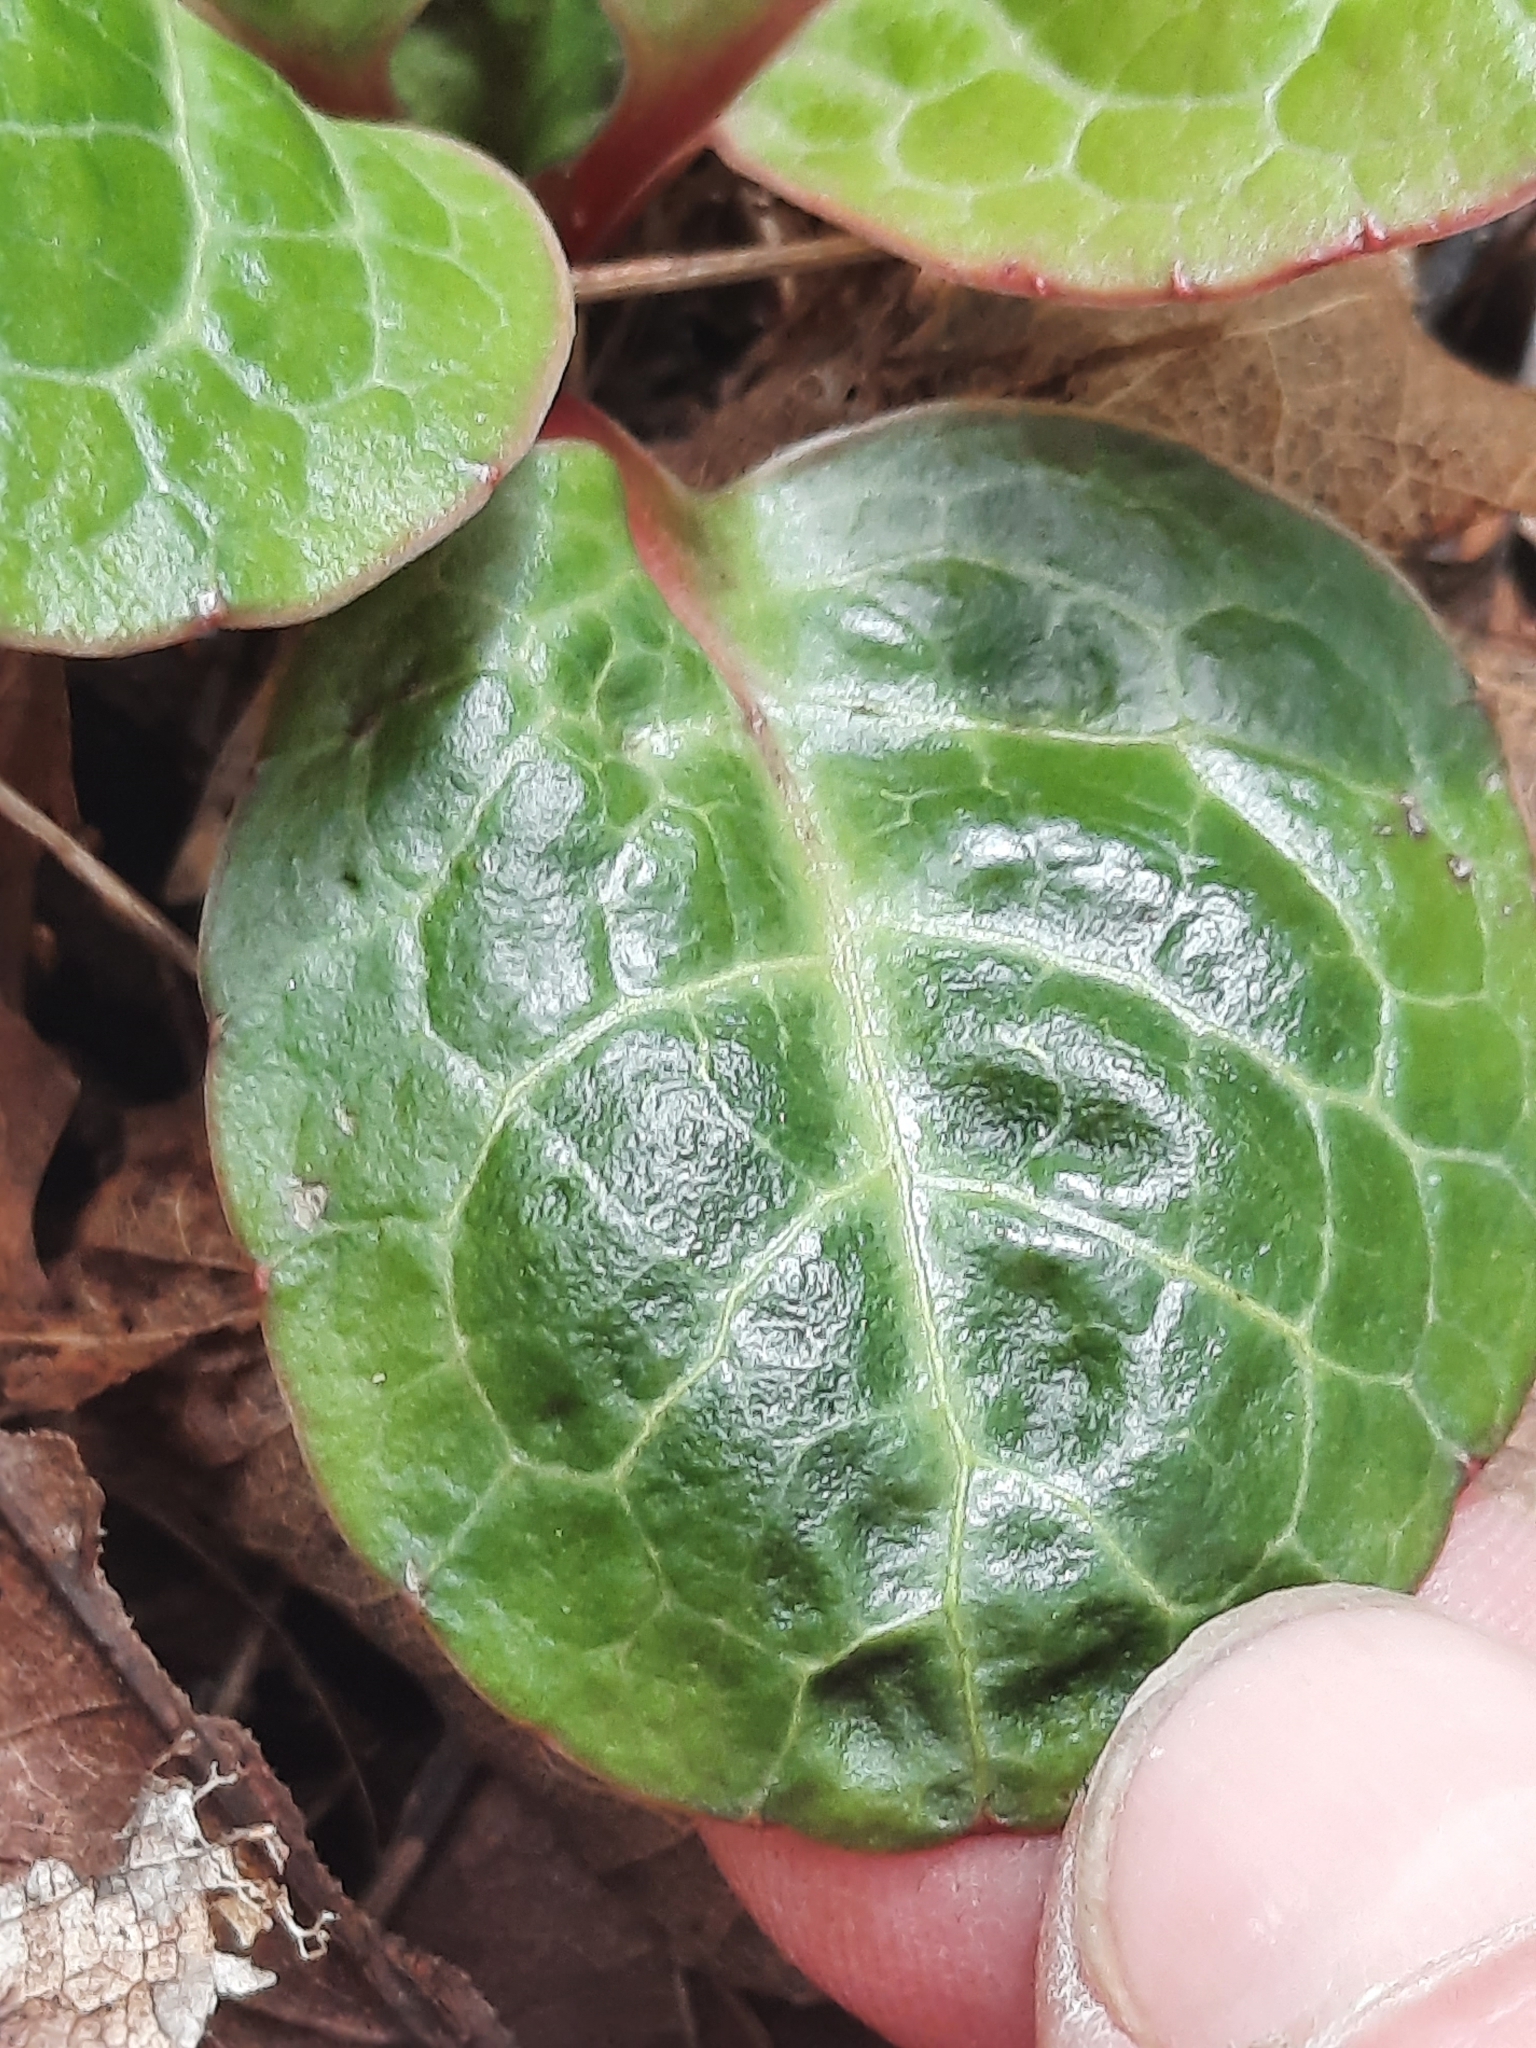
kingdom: Plantae
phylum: Tracheophyta
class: Magnoliopsida
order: Ericales
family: Ericaceae
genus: Pyrola
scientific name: Pyrola americana
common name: American wintergreen
